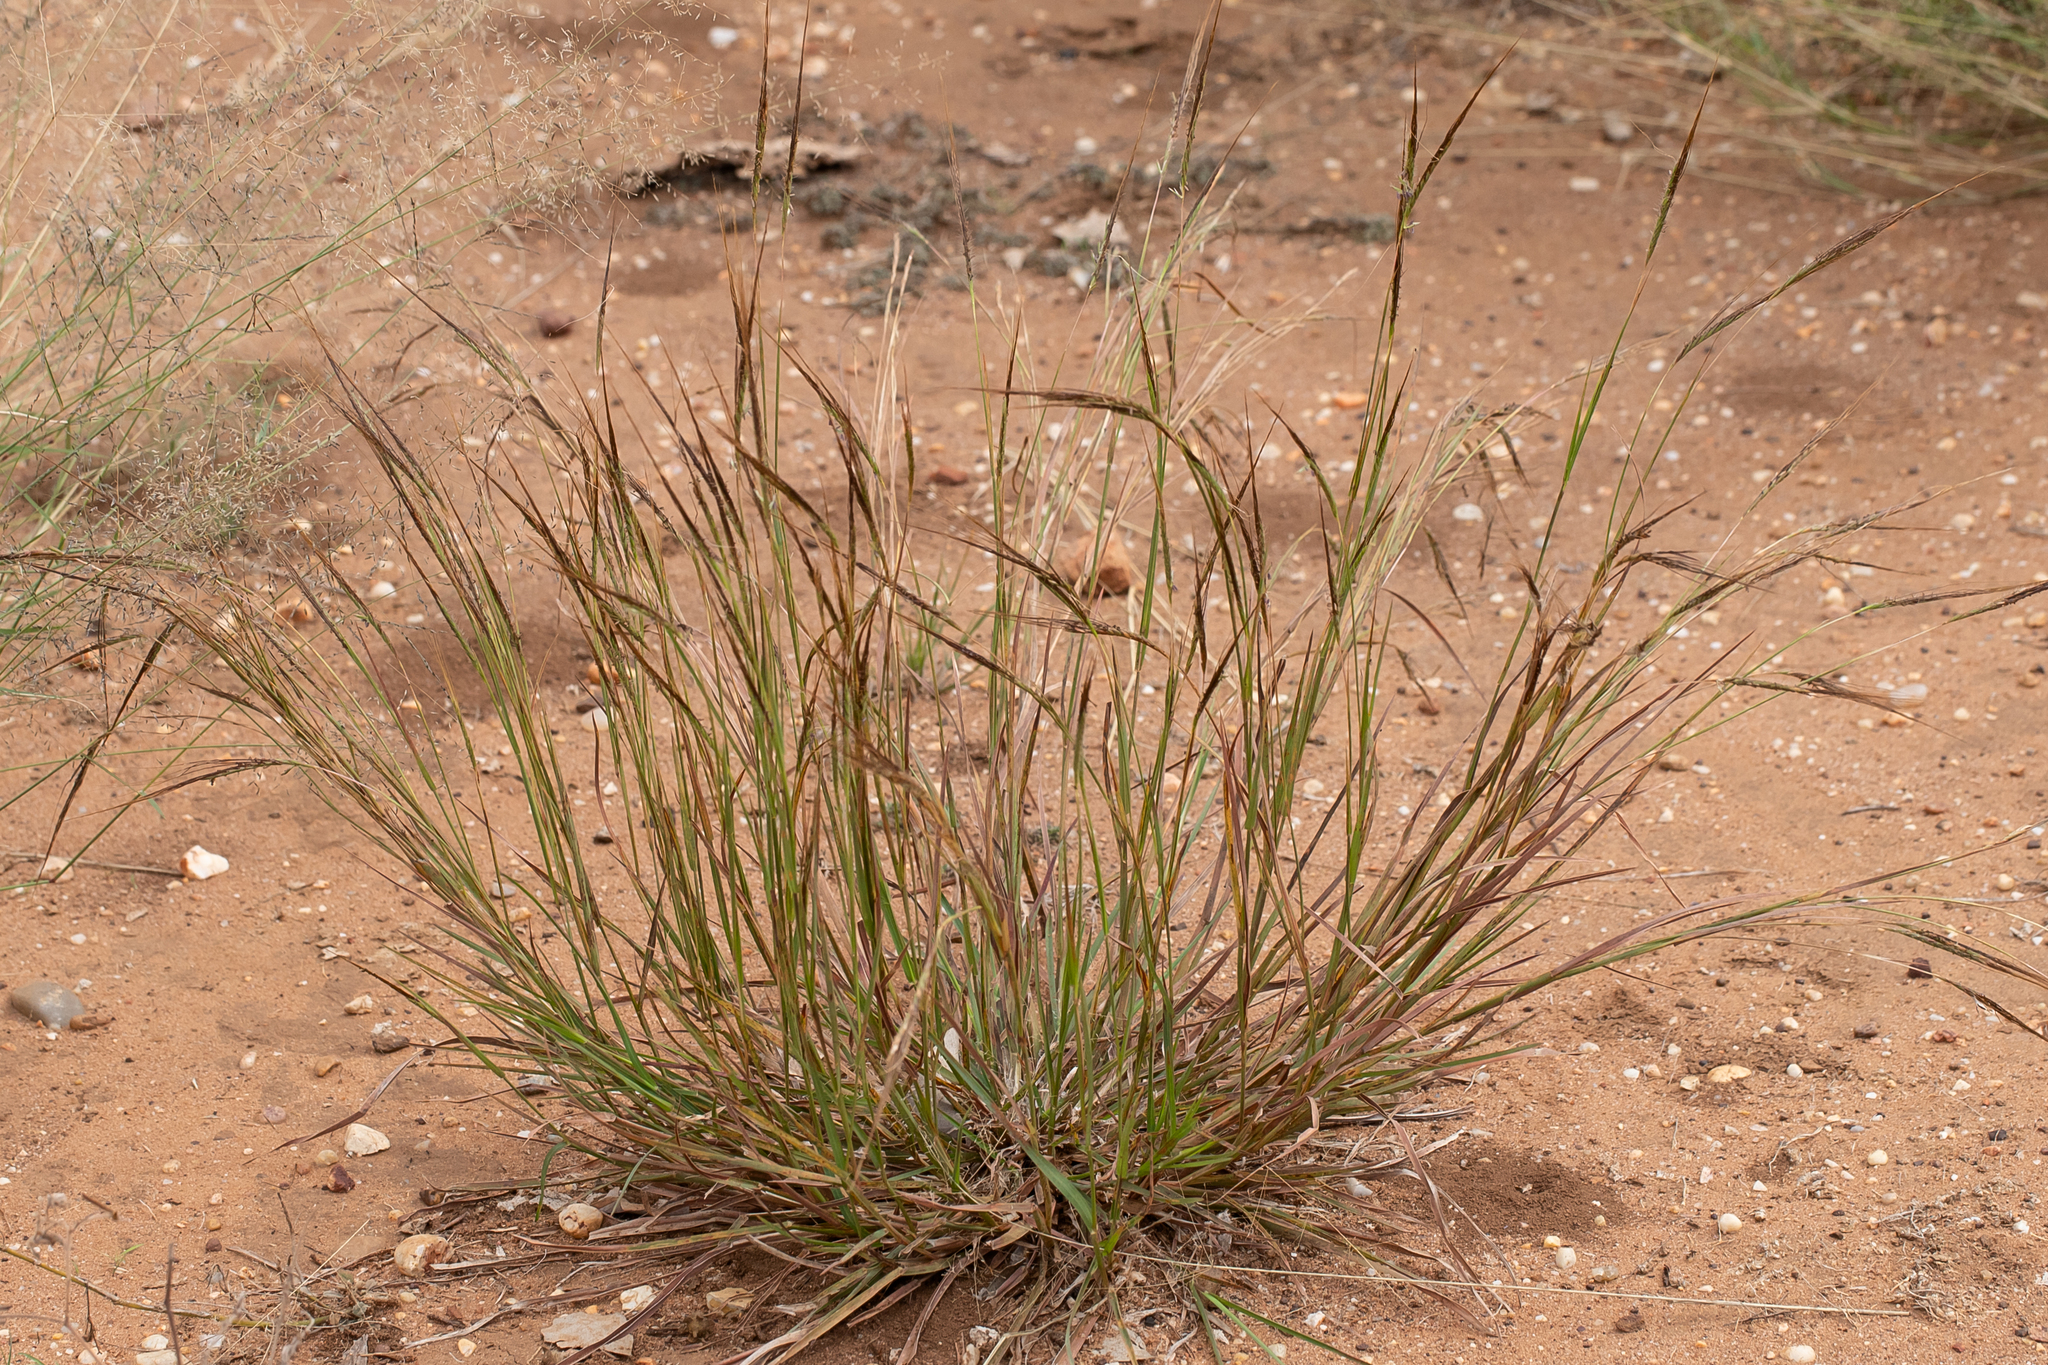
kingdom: Plantae
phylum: Tracheophyta
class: Liliopsida
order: Poales
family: Poaceae
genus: Heteropogon
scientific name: Heteropogon contortus
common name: Tanglehead
